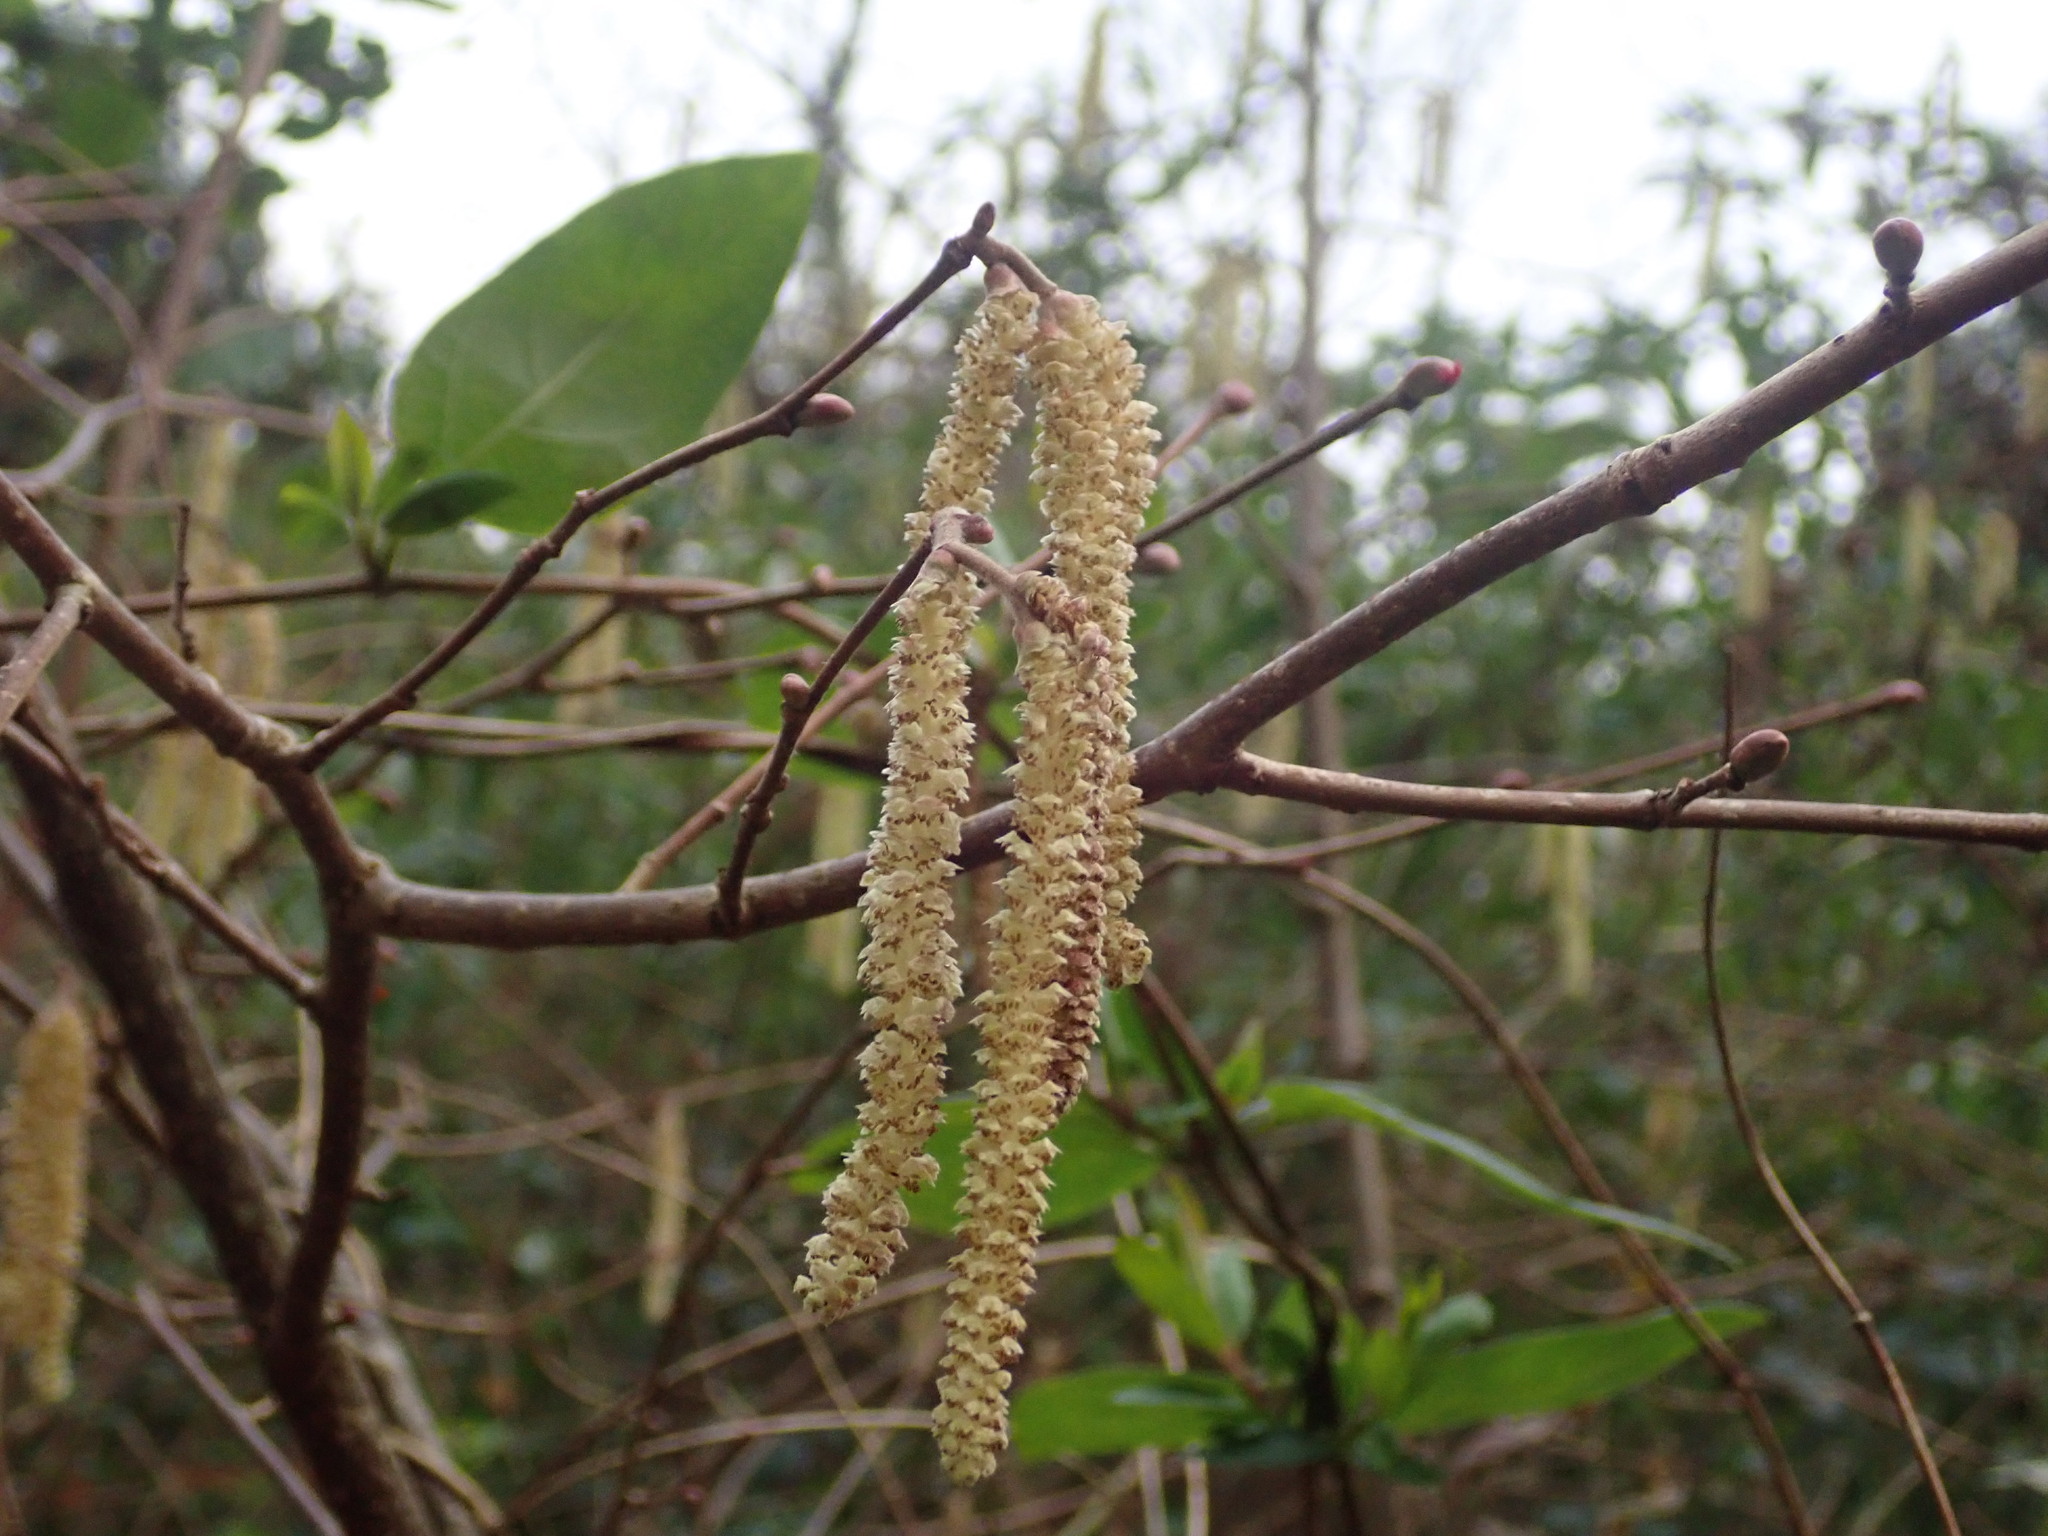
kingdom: Plantae
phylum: Tracheophyta
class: Magnoliopsida
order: Fagales
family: Betulaceae
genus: Corylus
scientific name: Corylus avellana
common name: European hazel
